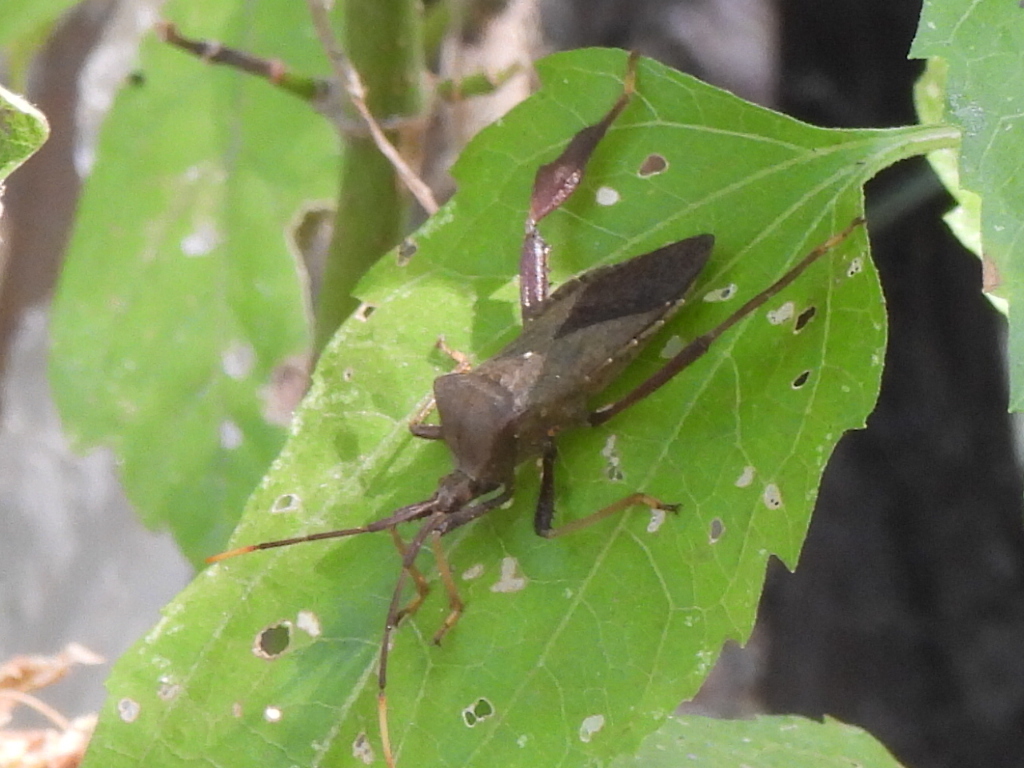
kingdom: Animalia
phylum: Arthropoda
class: Insecta
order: Hemiptera
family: Coreidae
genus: Acanthocephala
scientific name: Acanthocephala terminalis
